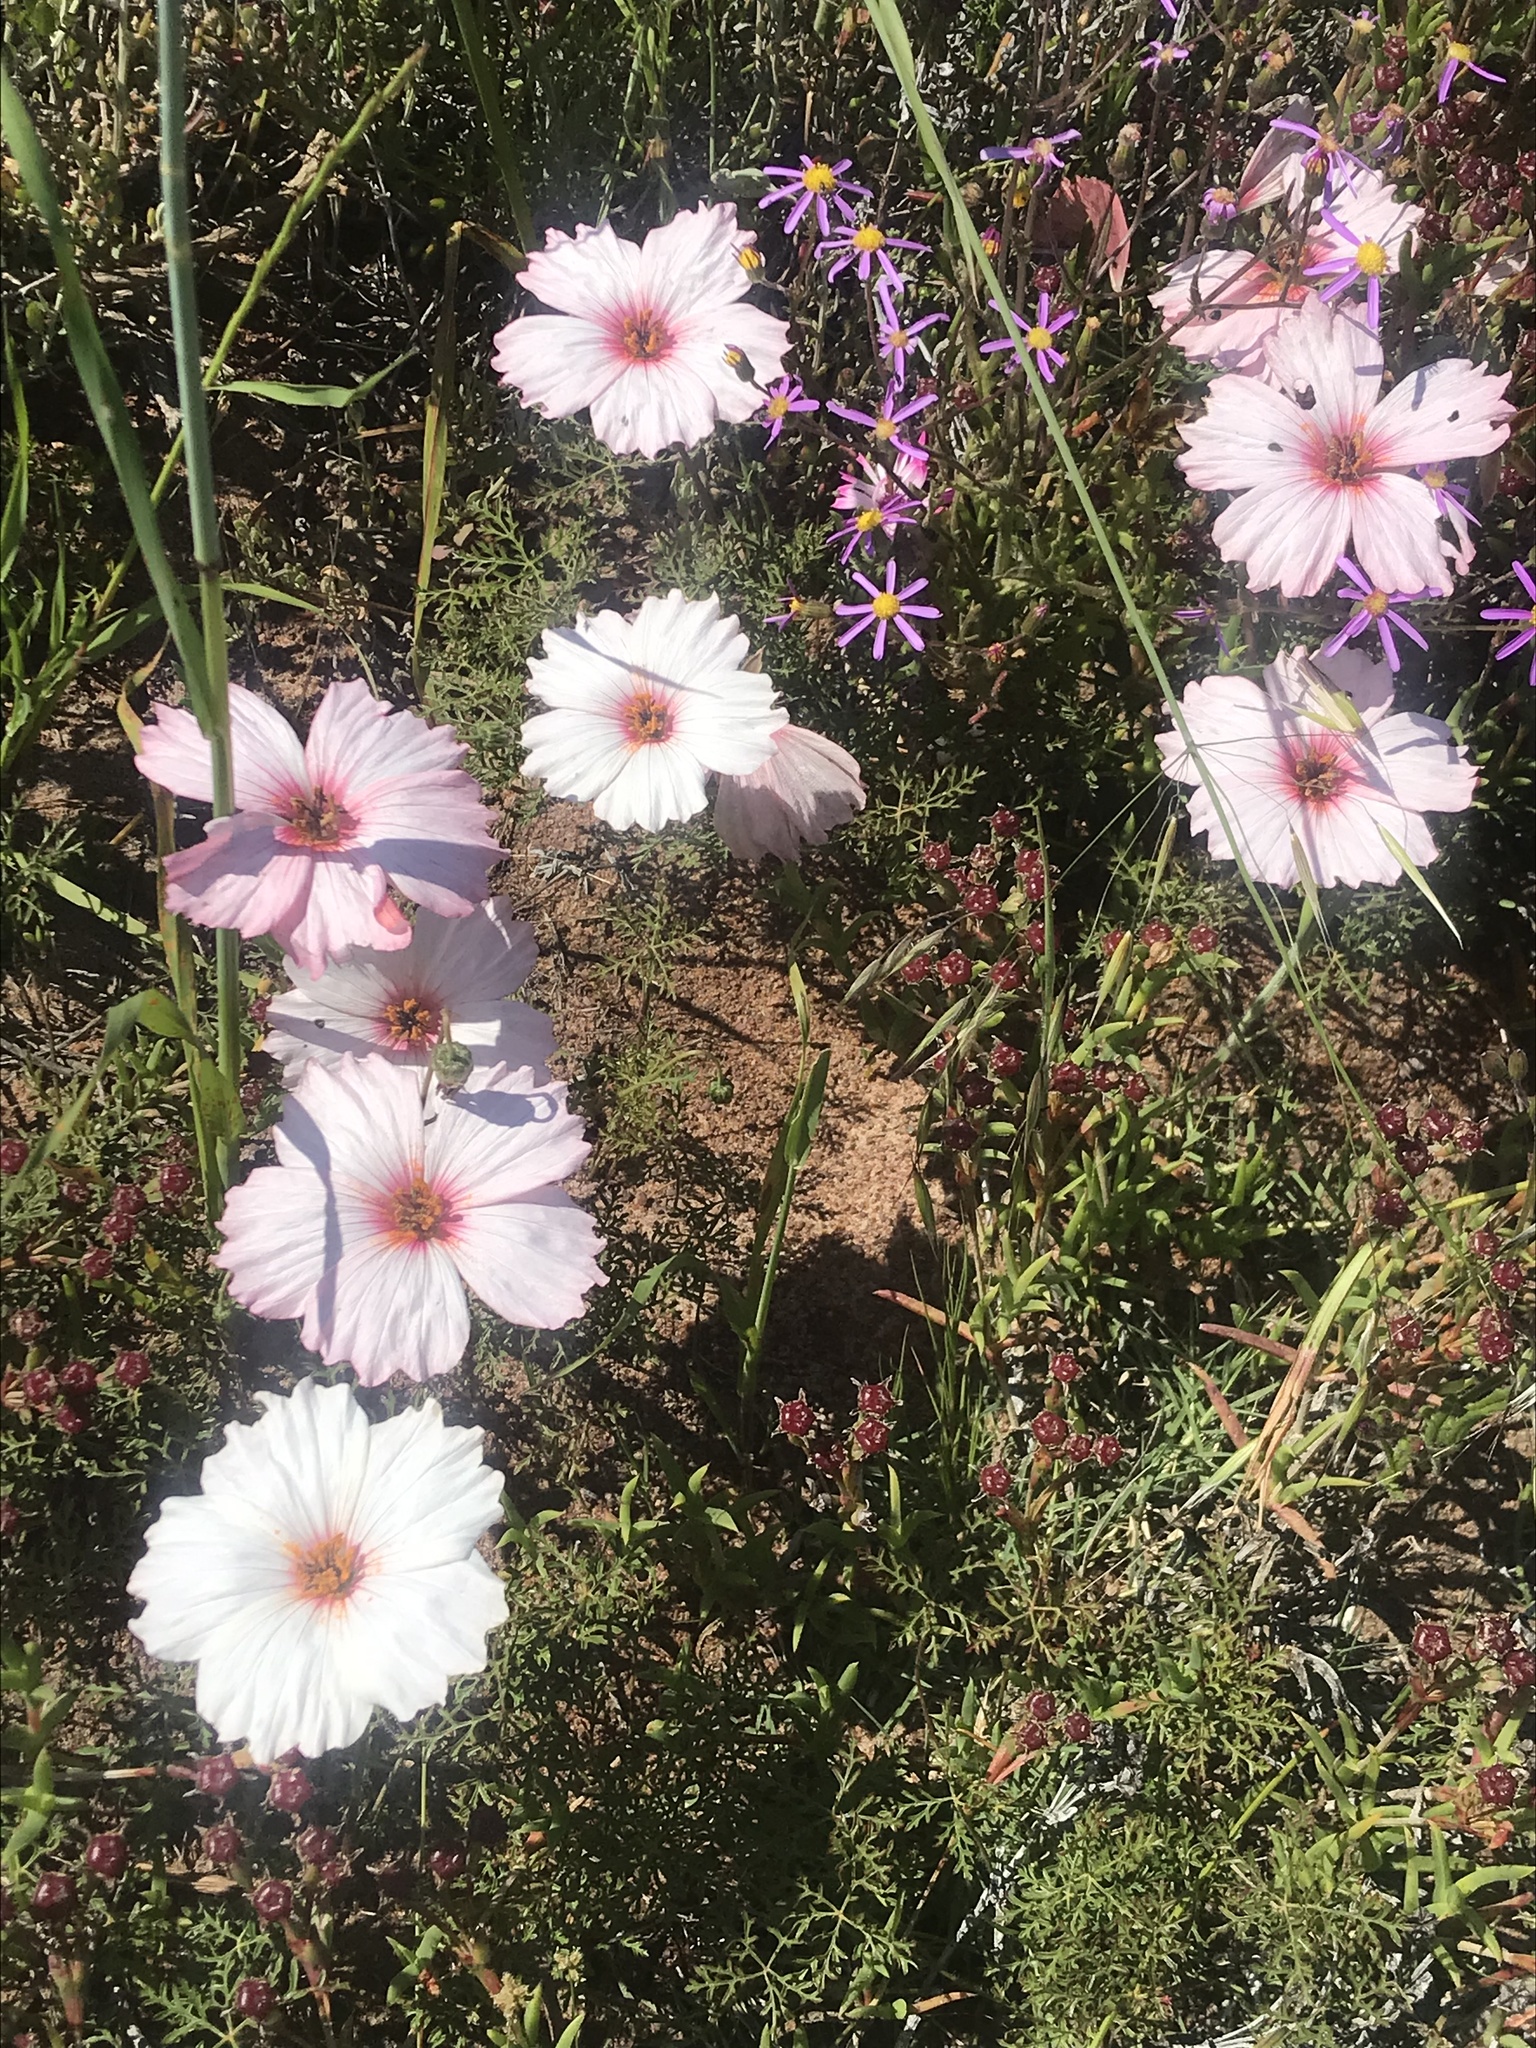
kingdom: Plantae
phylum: Tracheophyta
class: Magnoliopsida
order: Geraniales
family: Geraniaceae
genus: Monsonia
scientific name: Monsonia speciosa
